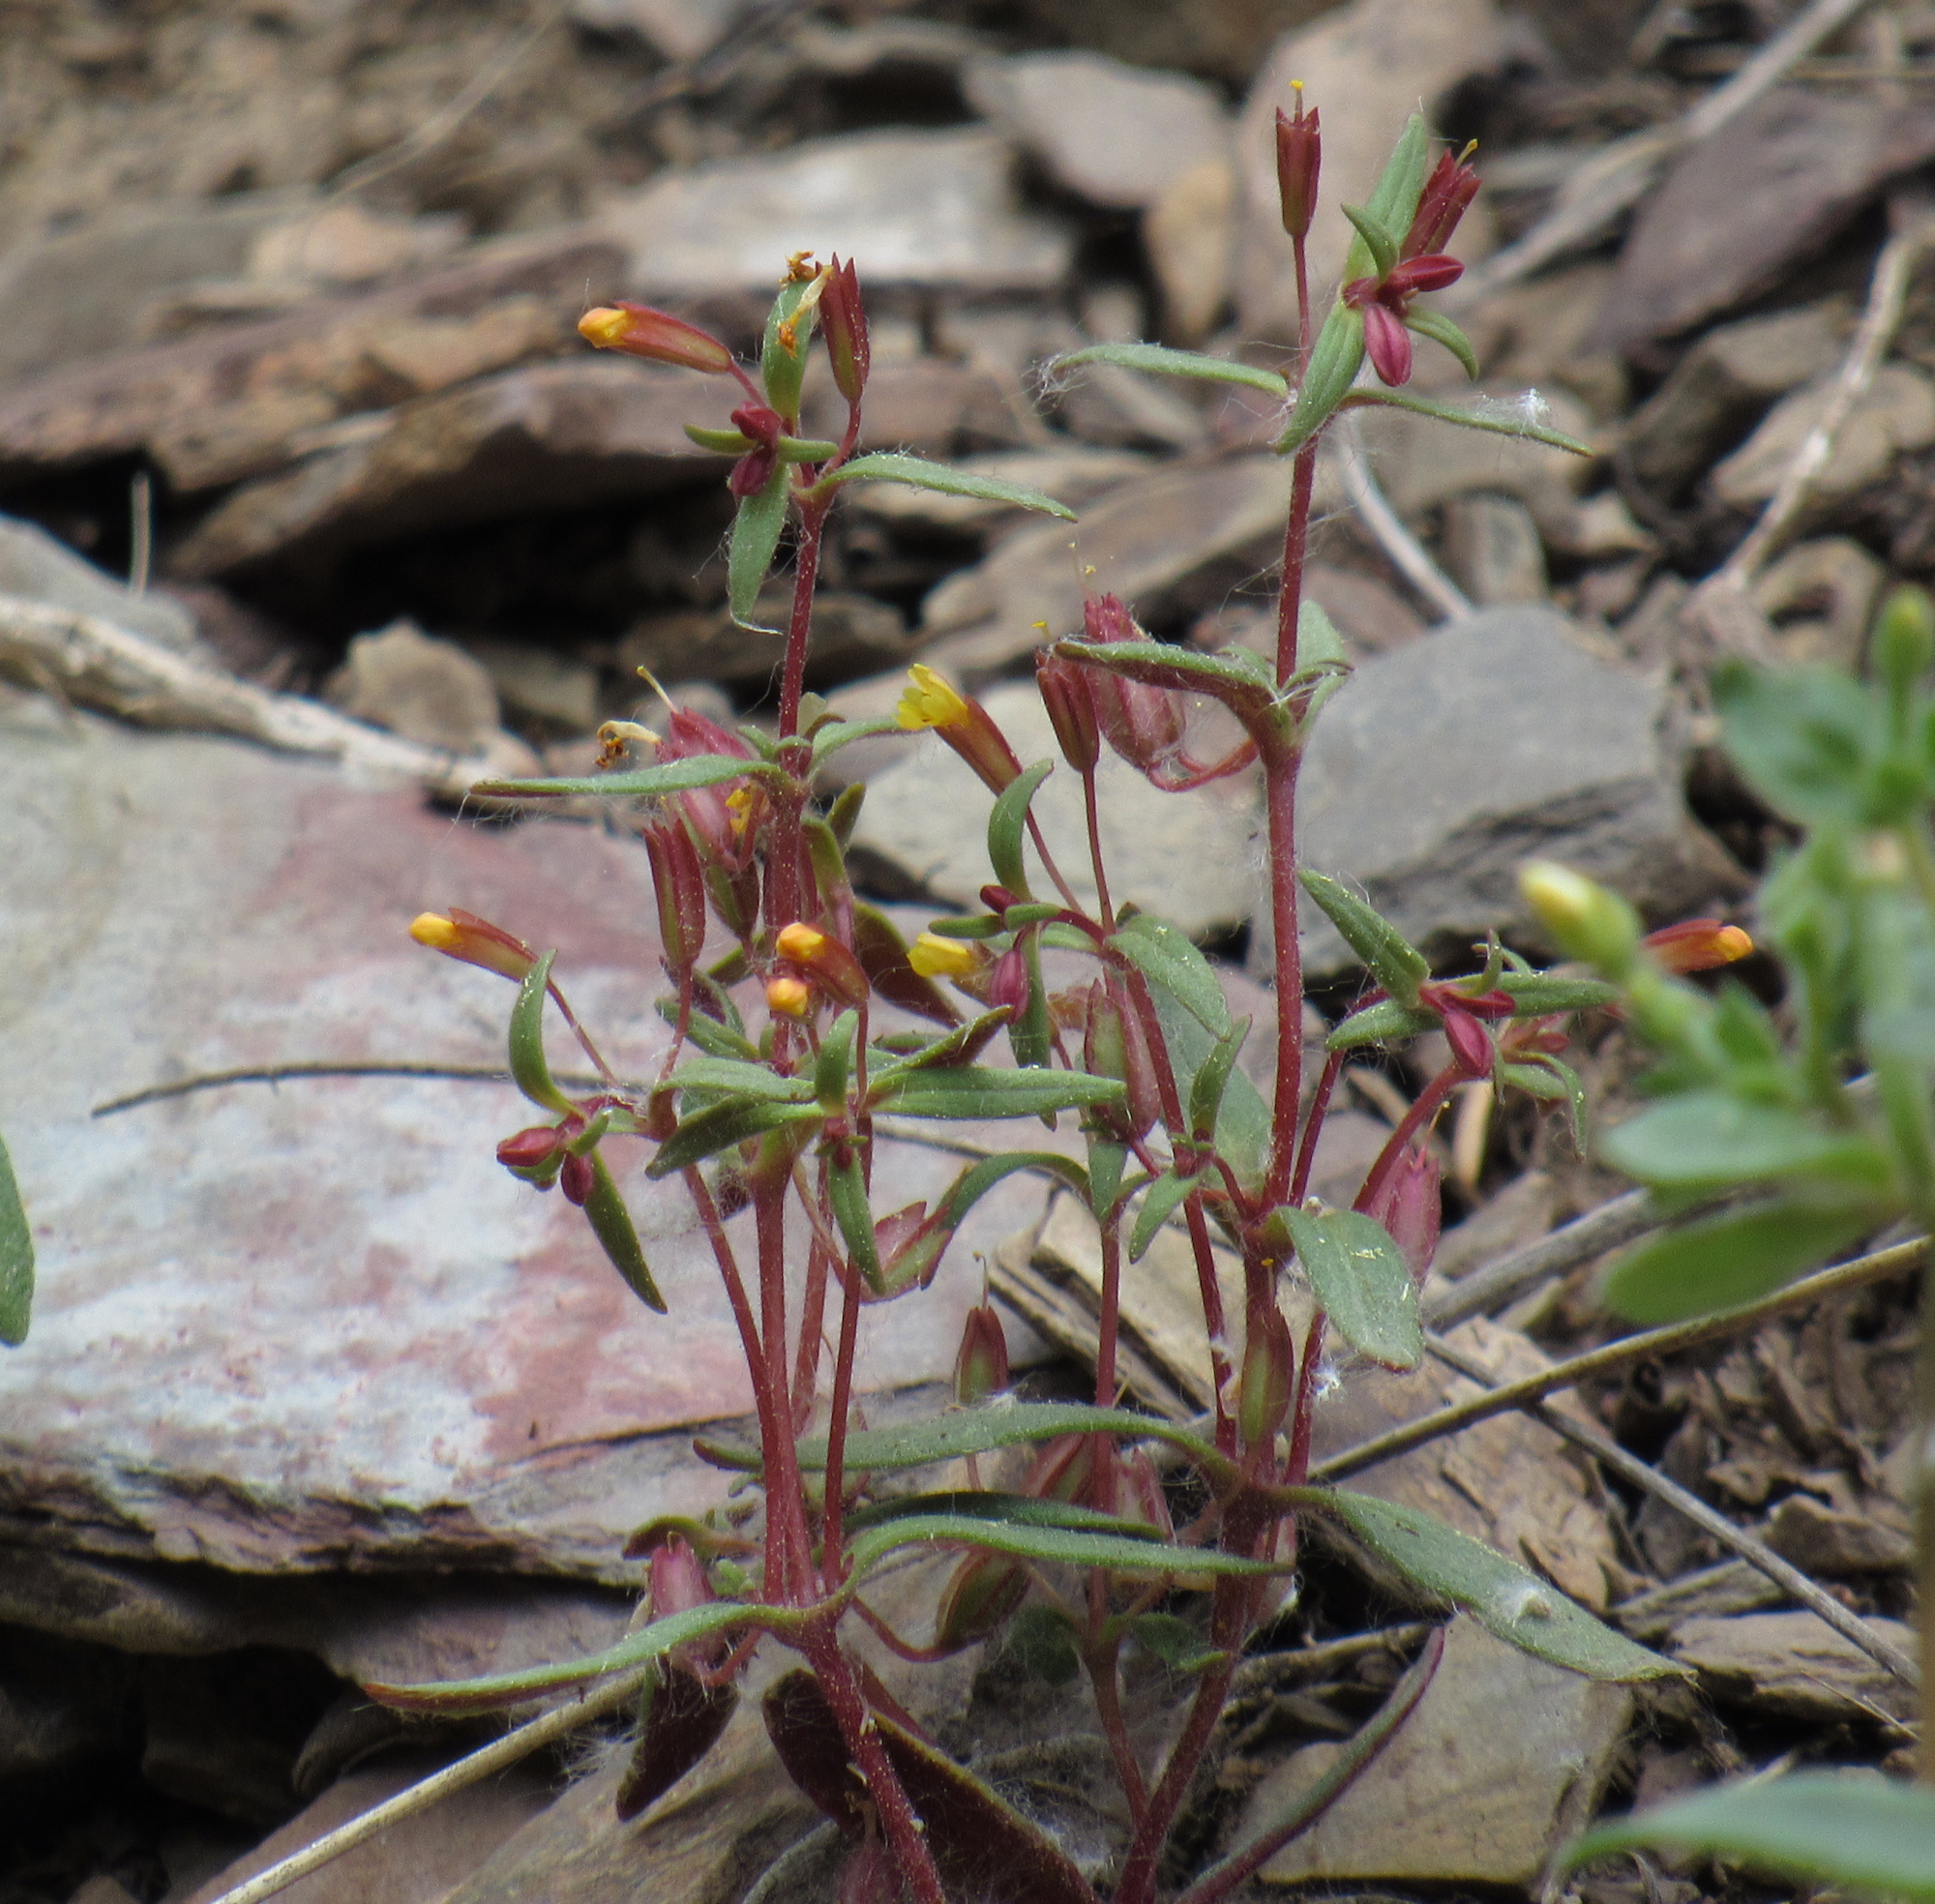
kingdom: Plantae
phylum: Tracheophyta
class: Magnoliopsida
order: Lamiales
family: Phrymaceae
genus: Erythranthe
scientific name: Erythranthe rubella
